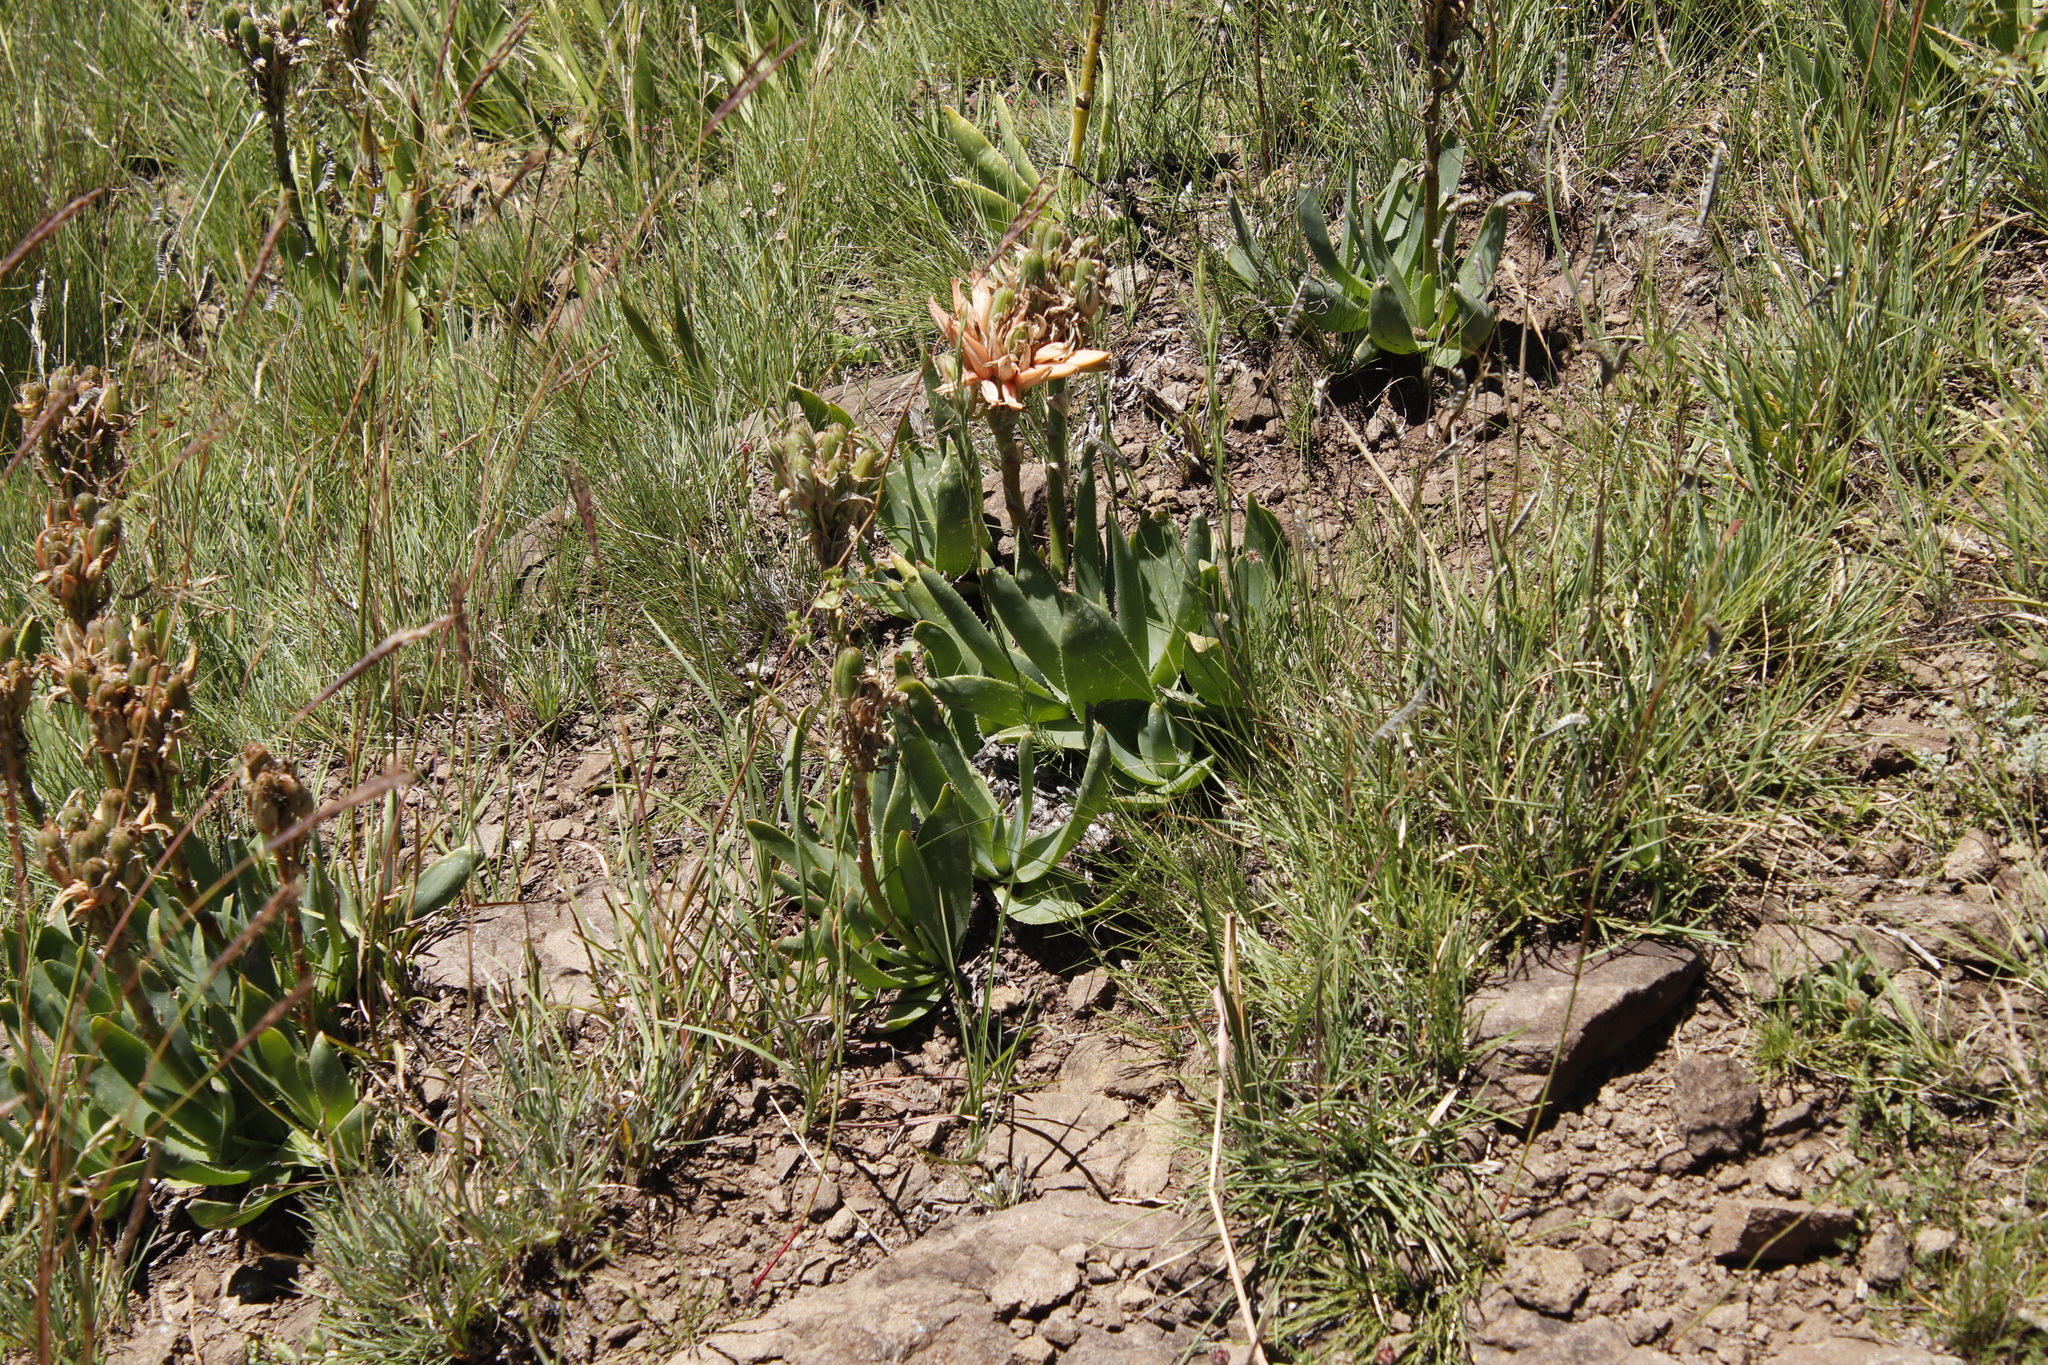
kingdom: Plantae
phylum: Tracheophyta
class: Liliopsida
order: Asparagales
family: Asphodelaceae
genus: Aloe
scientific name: Aloe ecklonis
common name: Ecklon's aloe
